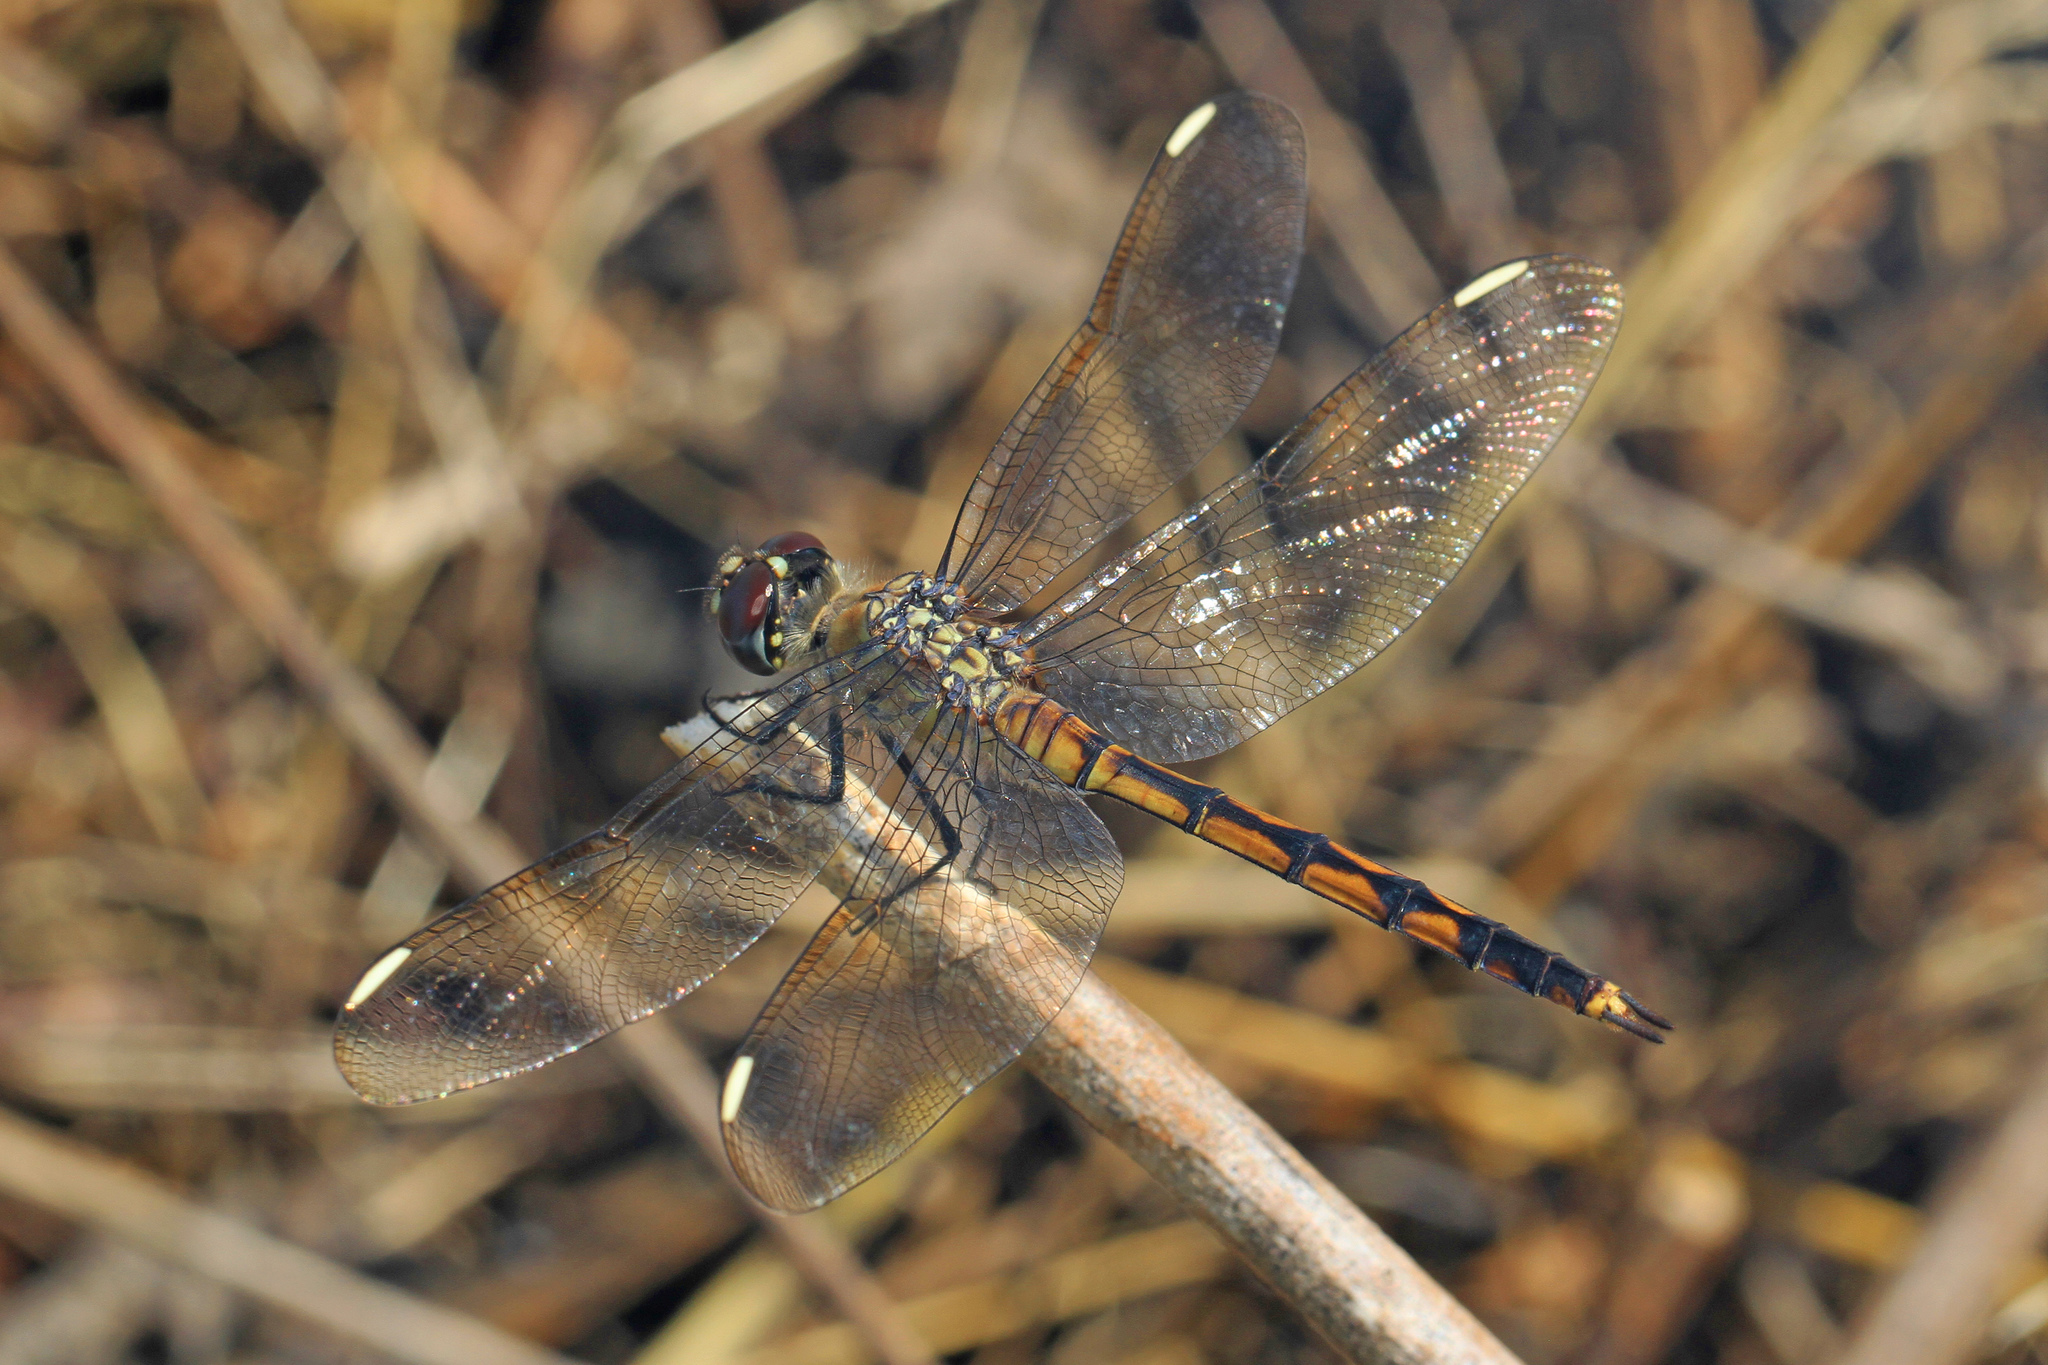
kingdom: Animalia
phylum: Arthropoda
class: Insecta
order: Odonata
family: Libellulidae
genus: Brachymesia
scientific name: Brachymesia gravida
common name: Four-spotted pennant
